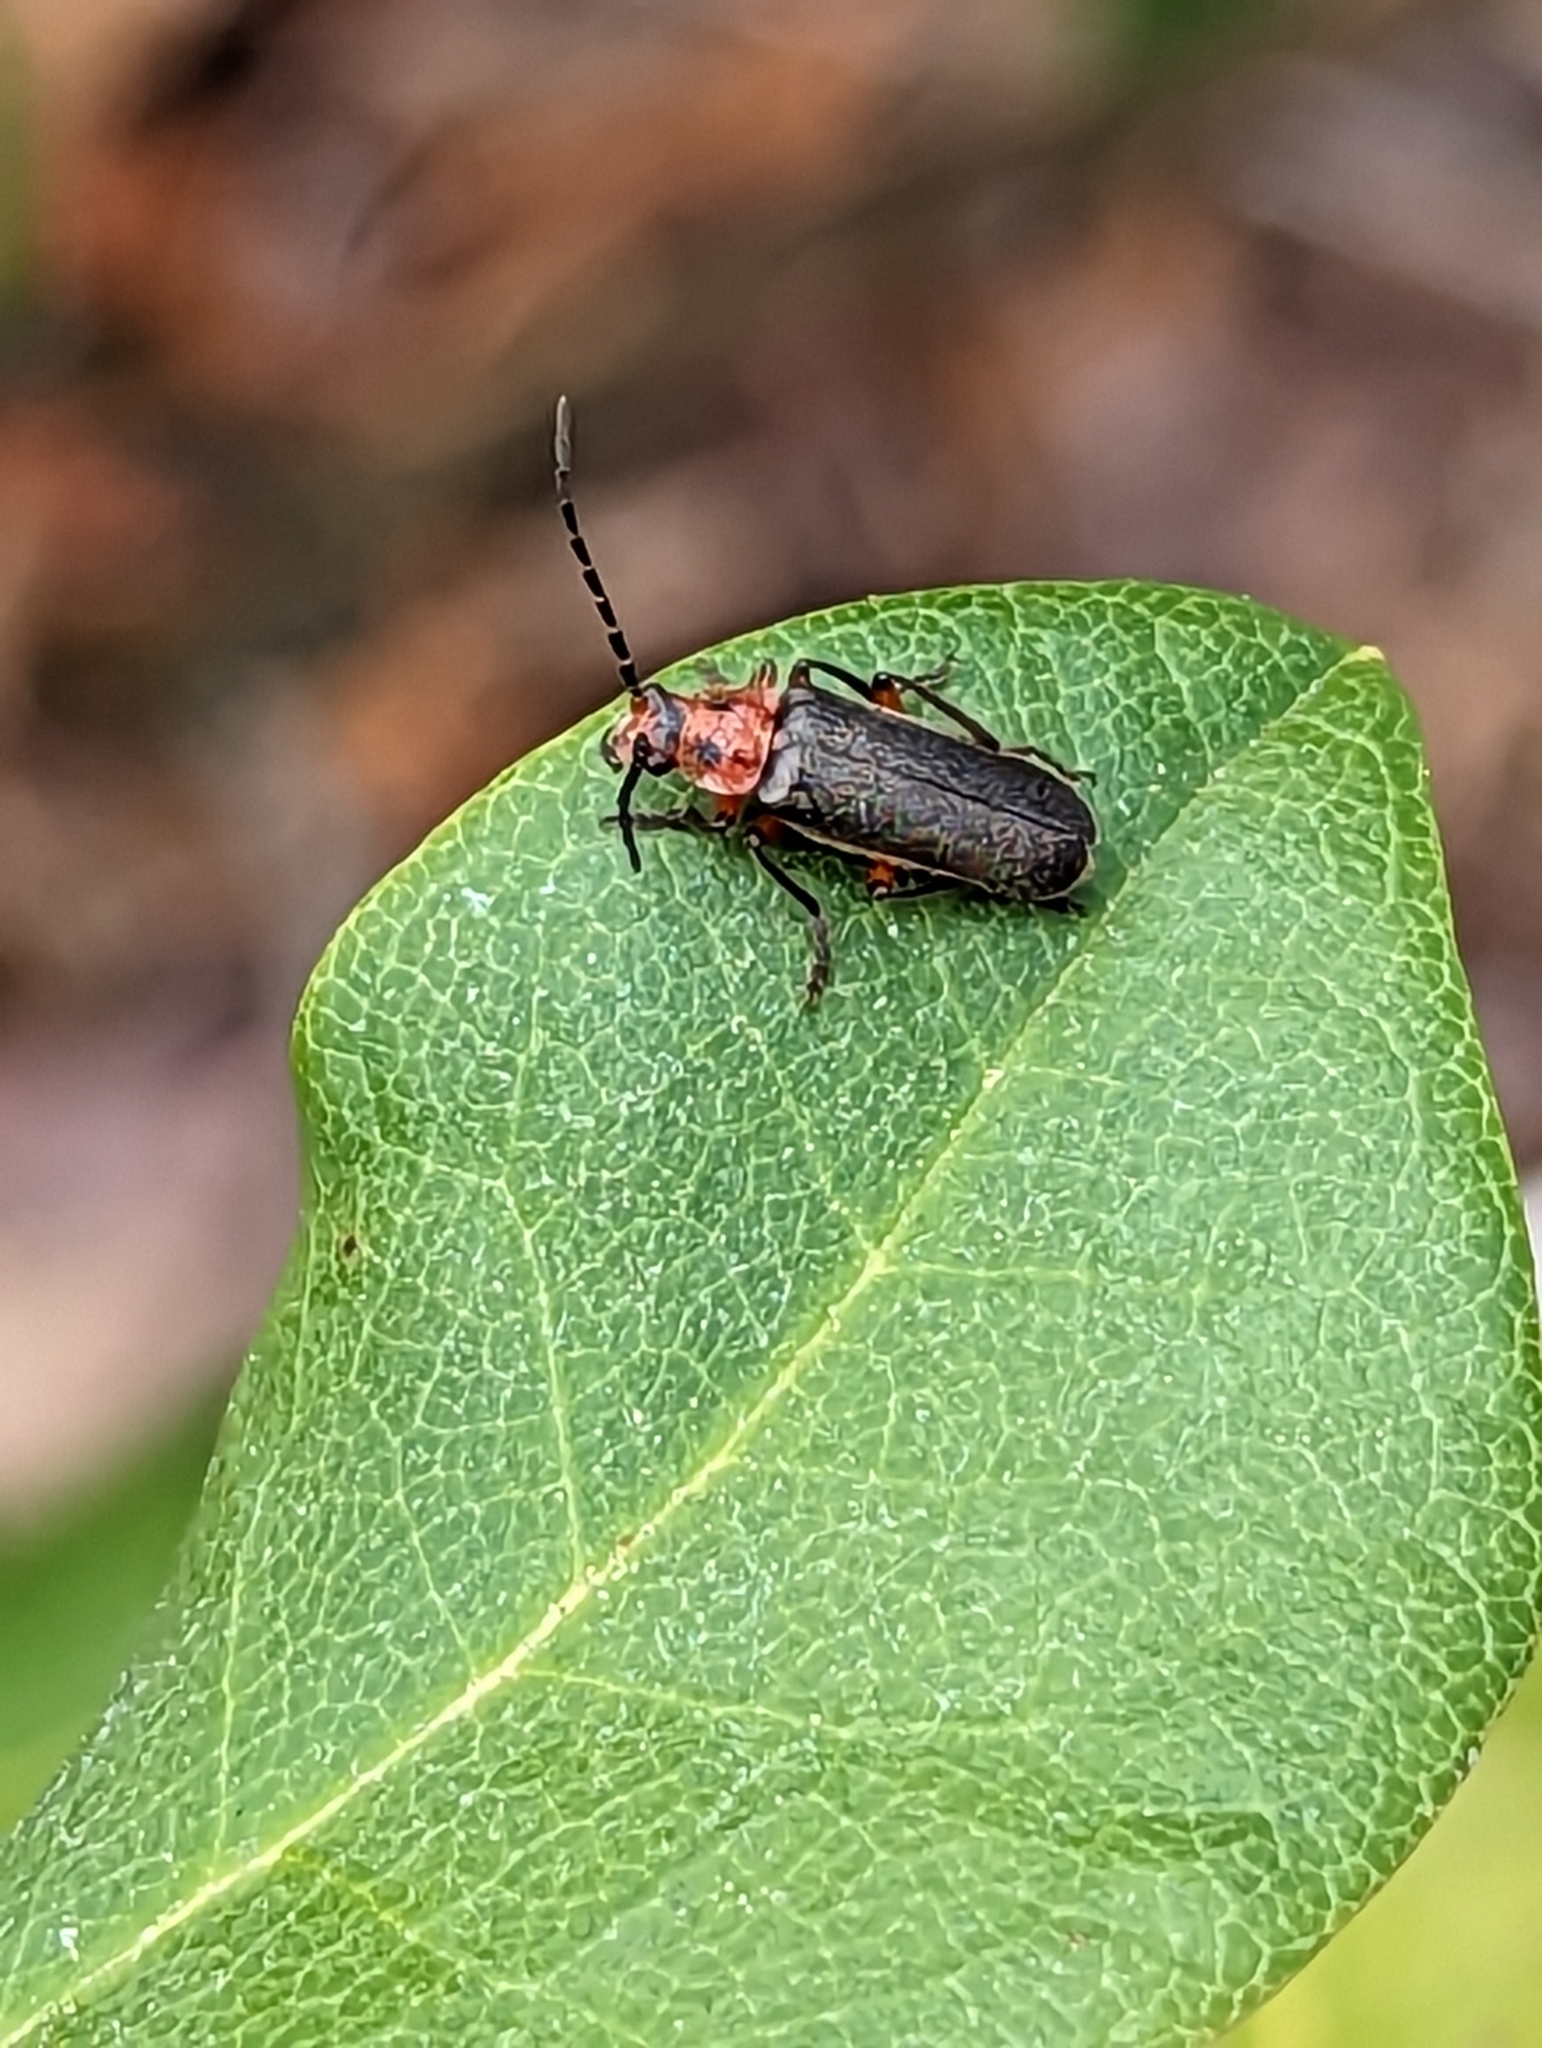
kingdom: Animalia
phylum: Arthropoda
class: Insecta
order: Coleoptera
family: Cantharidae
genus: Atalantycha
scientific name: Atalantycha bilineata
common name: Two-lined leatherwing
